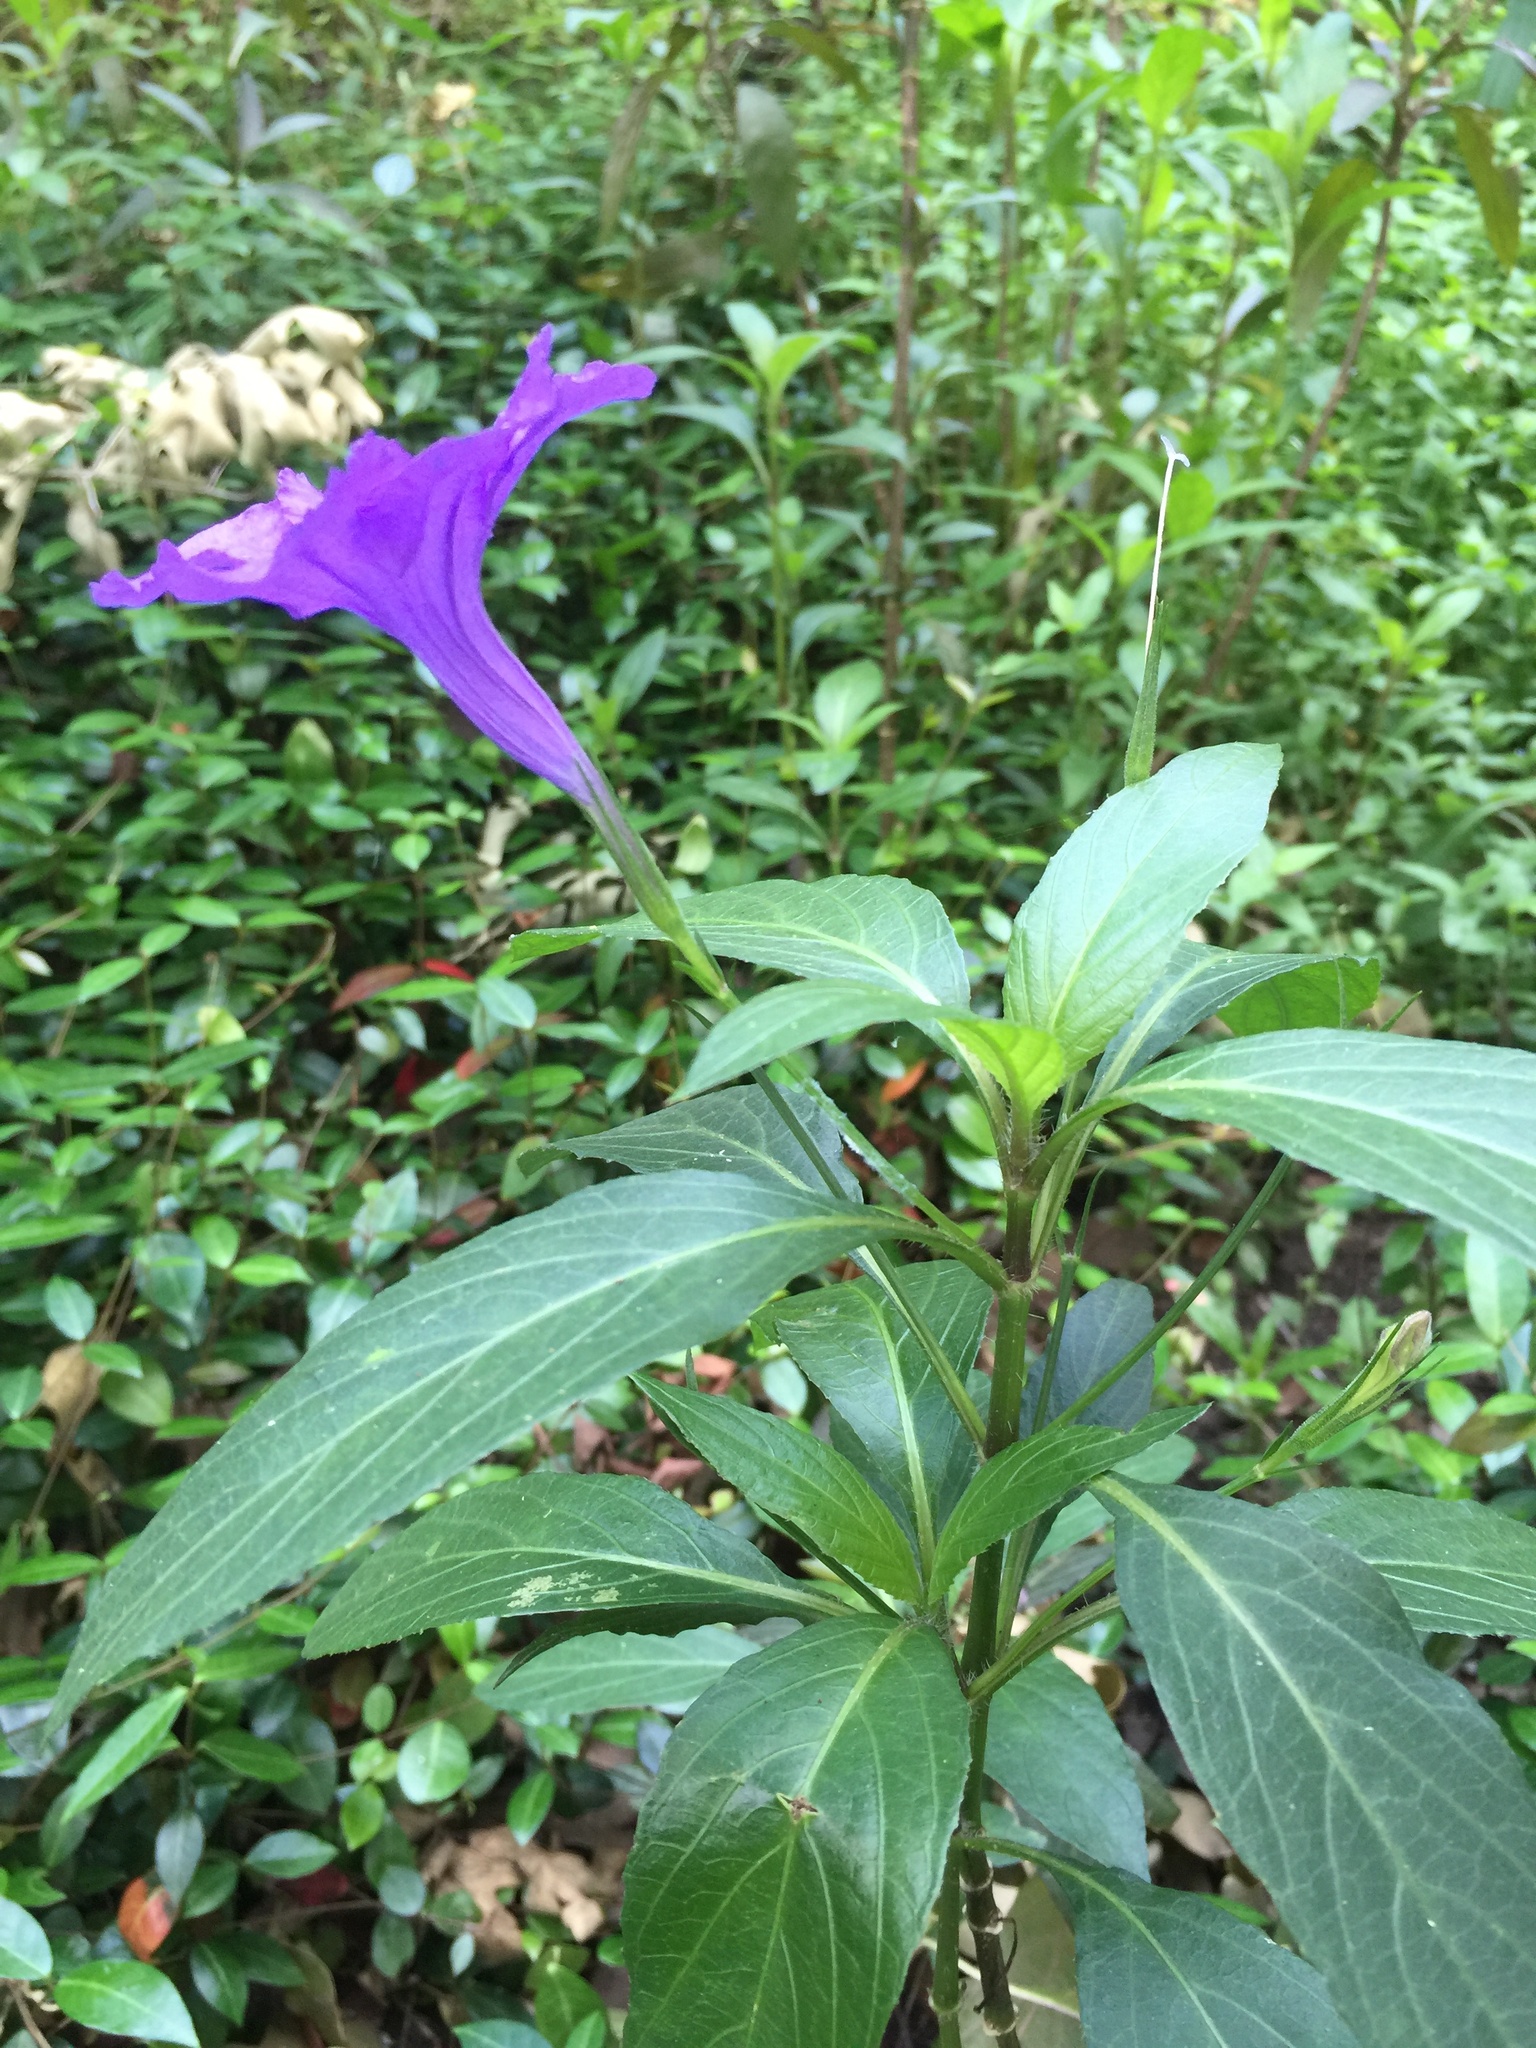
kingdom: Plantae
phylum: Tracheophyta
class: Magnoliopsida
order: Lamiales
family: Acanthaceae
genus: Ruellia
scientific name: Ruellia simplex
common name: Softseed wild petunia
